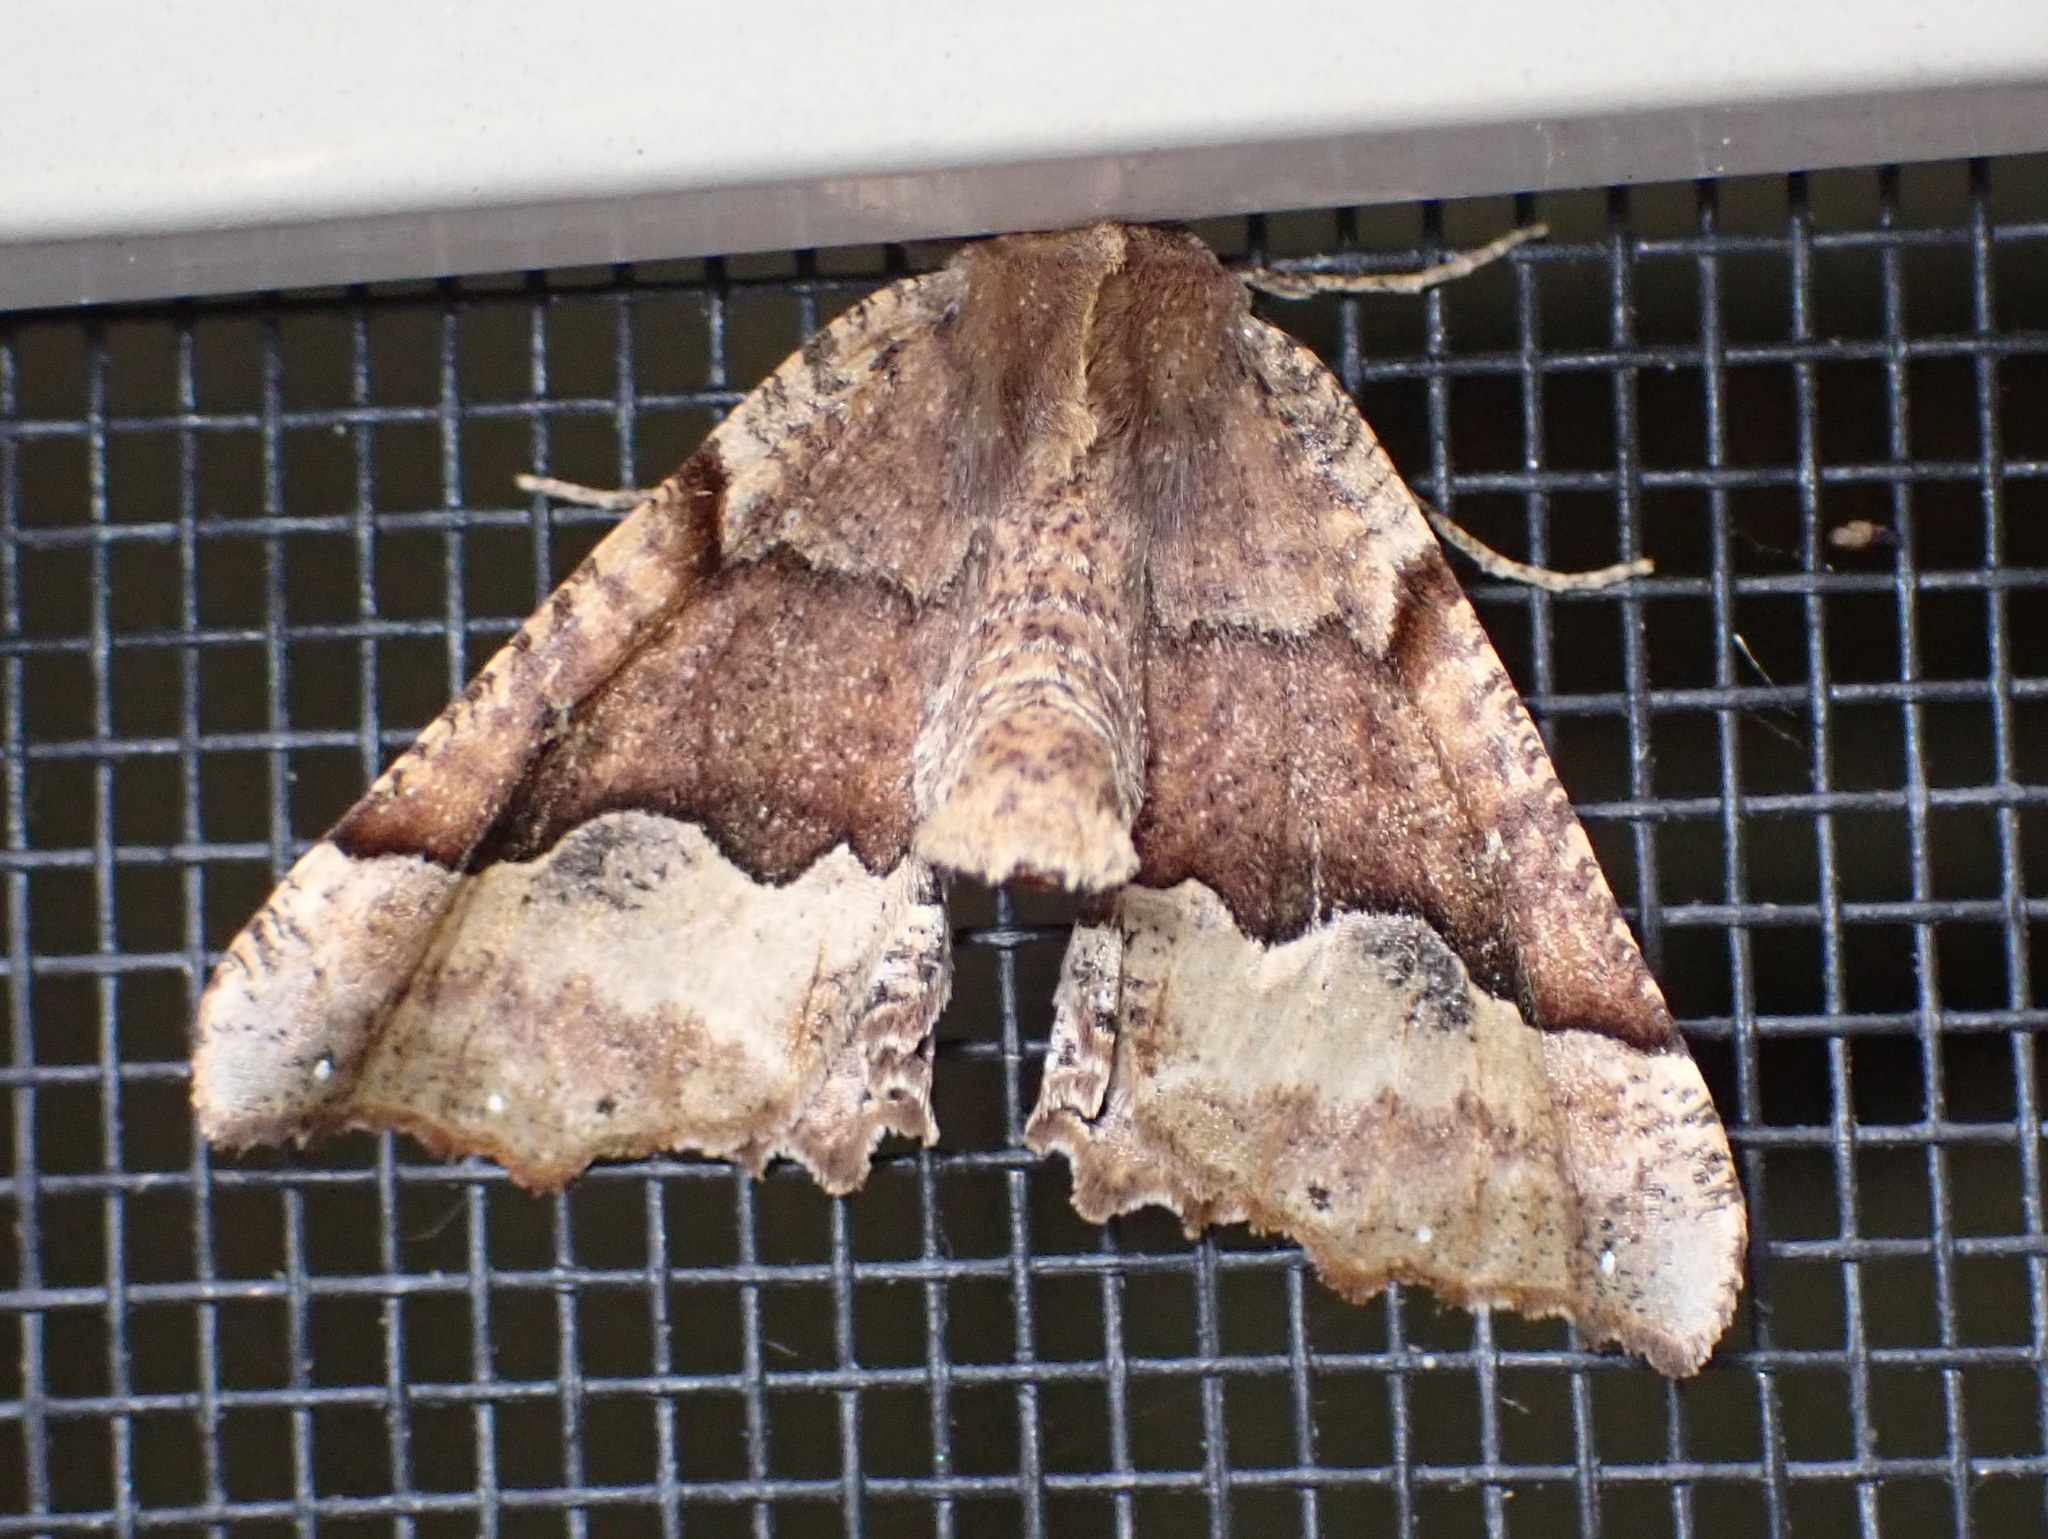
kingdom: Animalia
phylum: Arthropoda
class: Insecta
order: Lepidoptera
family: Geometridae
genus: Pero
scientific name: Pero morrisonaria
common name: Morrison's pero
